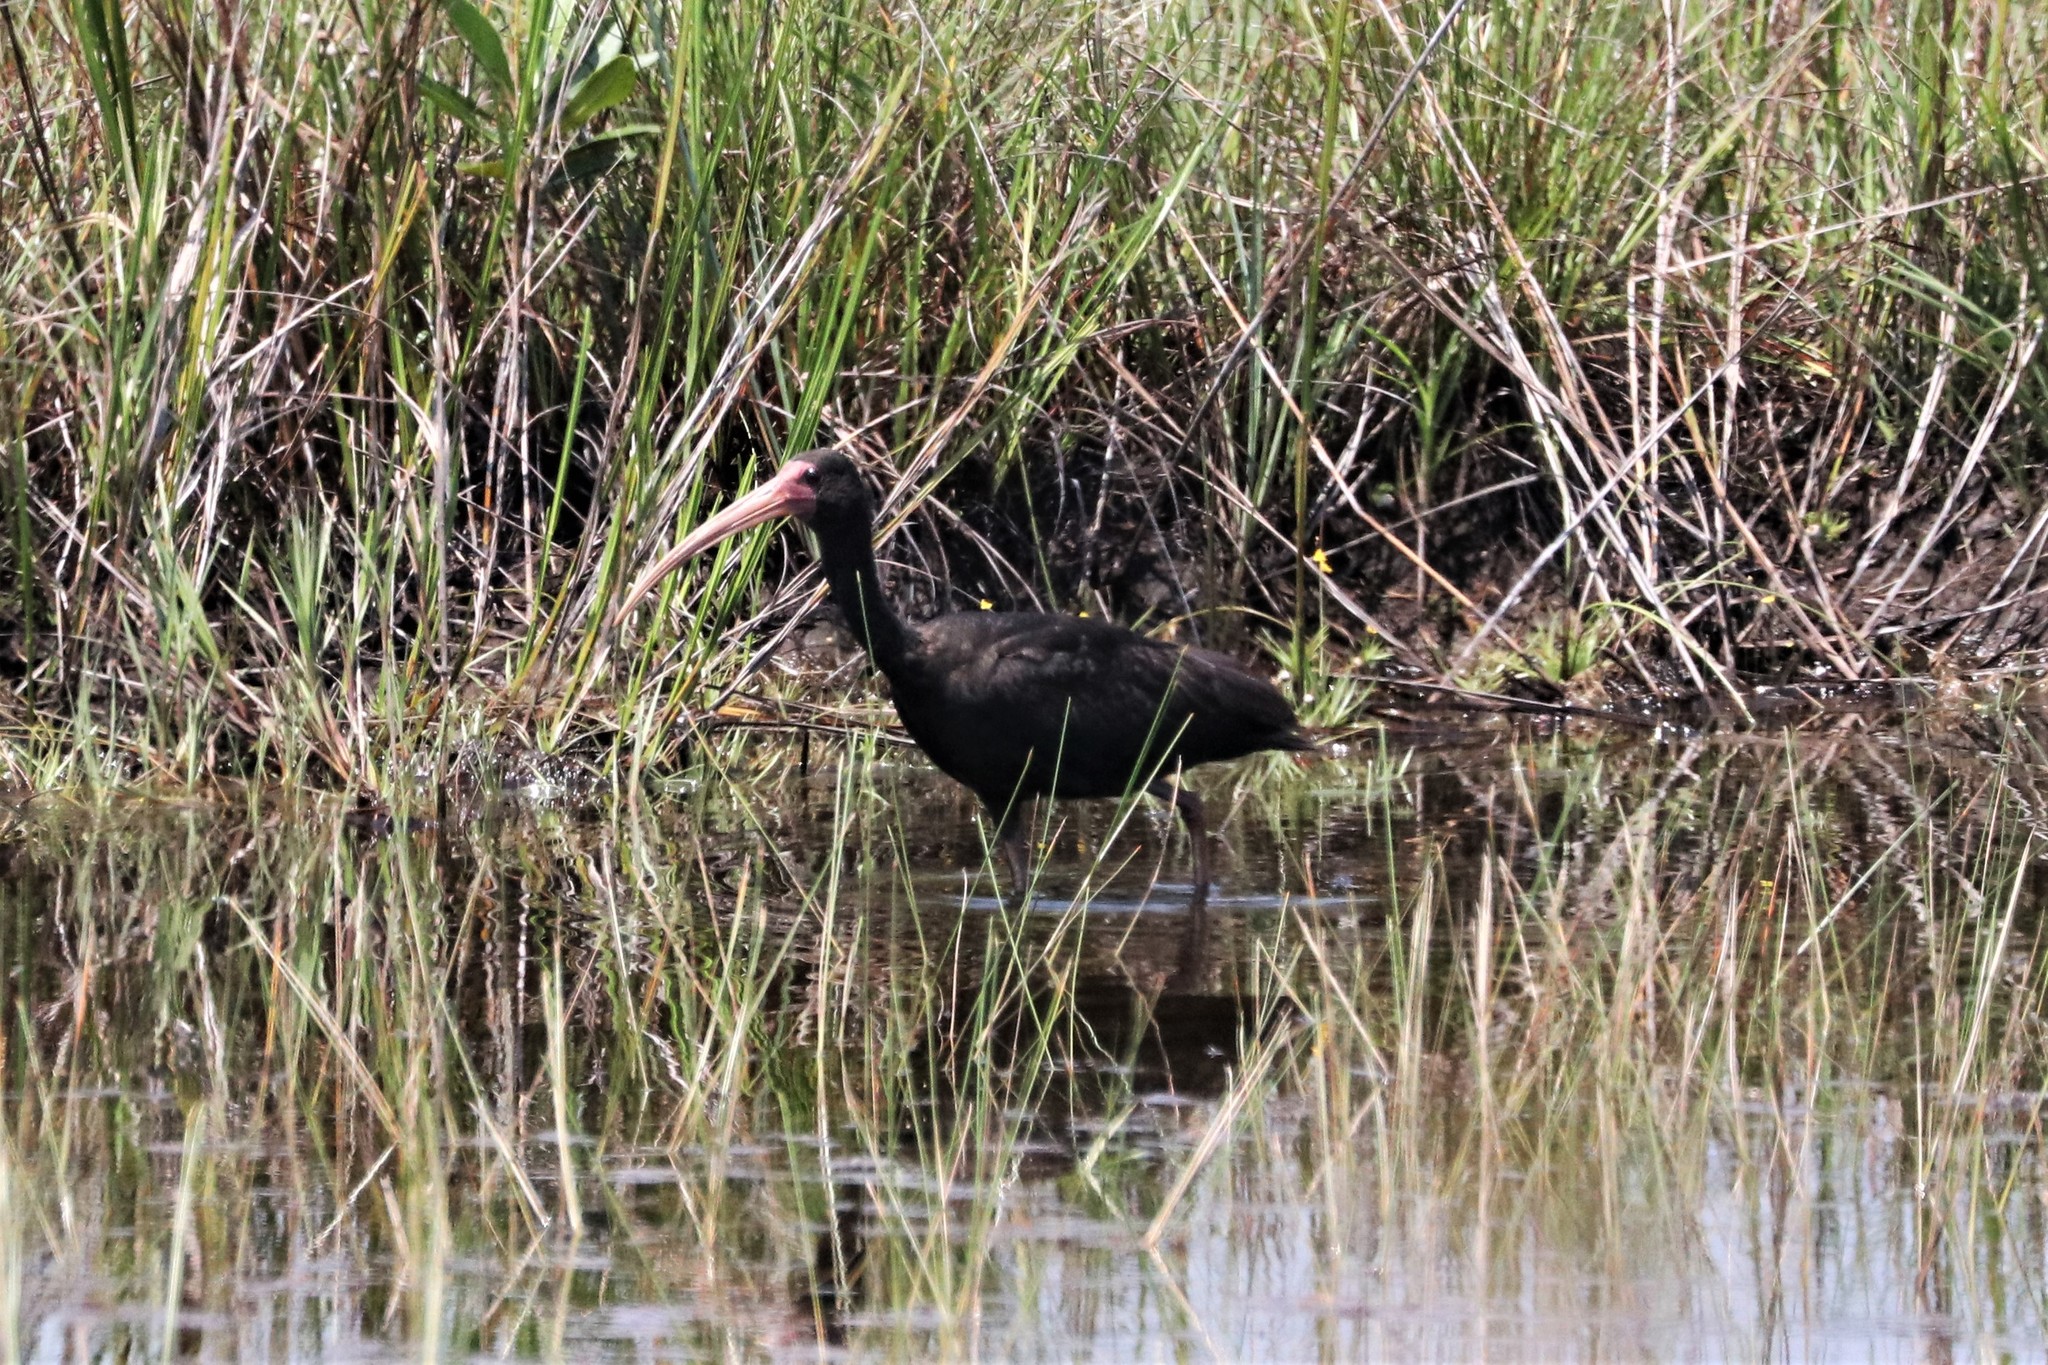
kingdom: Animalia
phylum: Chordata
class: Aves
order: Pelecaniformes
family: Threskiornithidae
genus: Phimosus
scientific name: Phimosus infuscatus
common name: Bare-faced ibis
